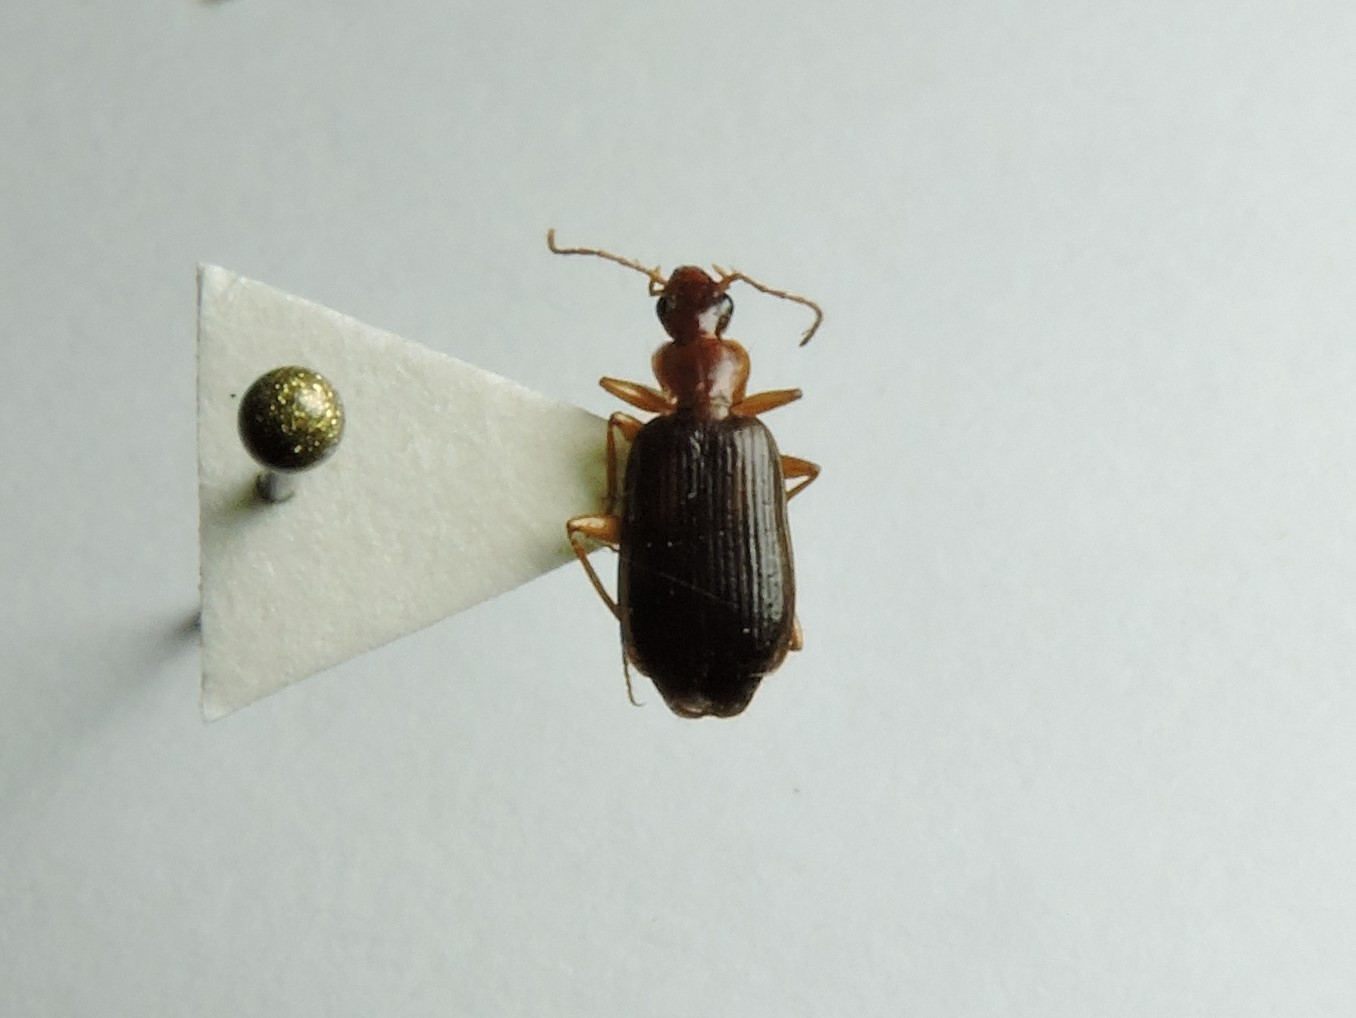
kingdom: Animalia
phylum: Arthropoda
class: Insecta
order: Coleoptera
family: Carabidae
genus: Dromius
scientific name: Dromius agilis
